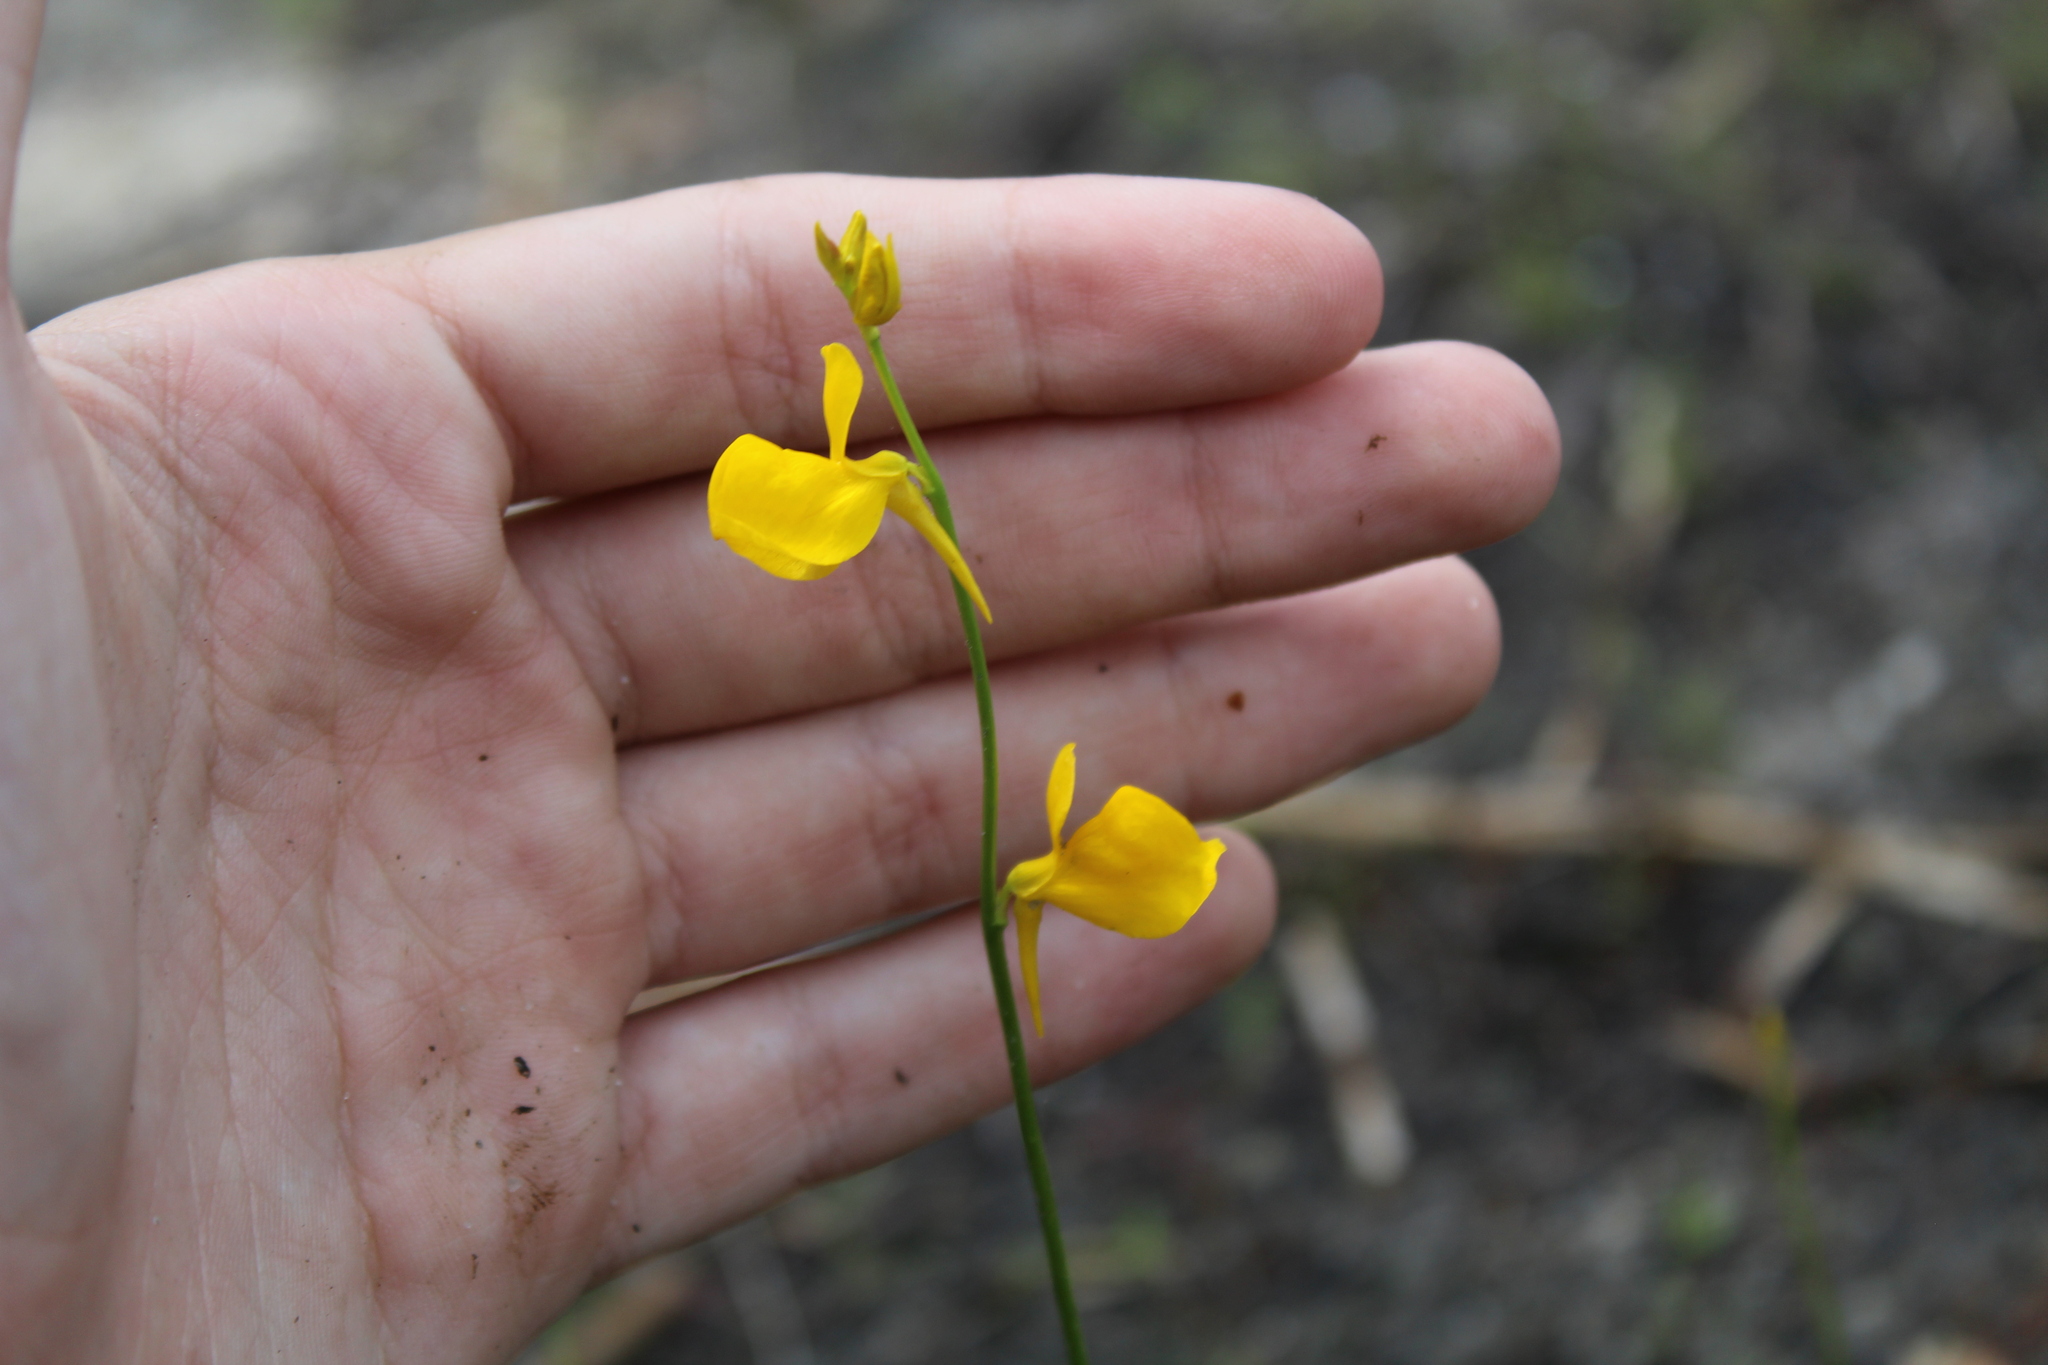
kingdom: Plantae
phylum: Tracheophyta
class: Magnoliopsida
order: Lamiales
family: Lentibulariaceae
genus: Utricularia
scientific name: Utricularia cornuta
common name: Horned bladderwort
